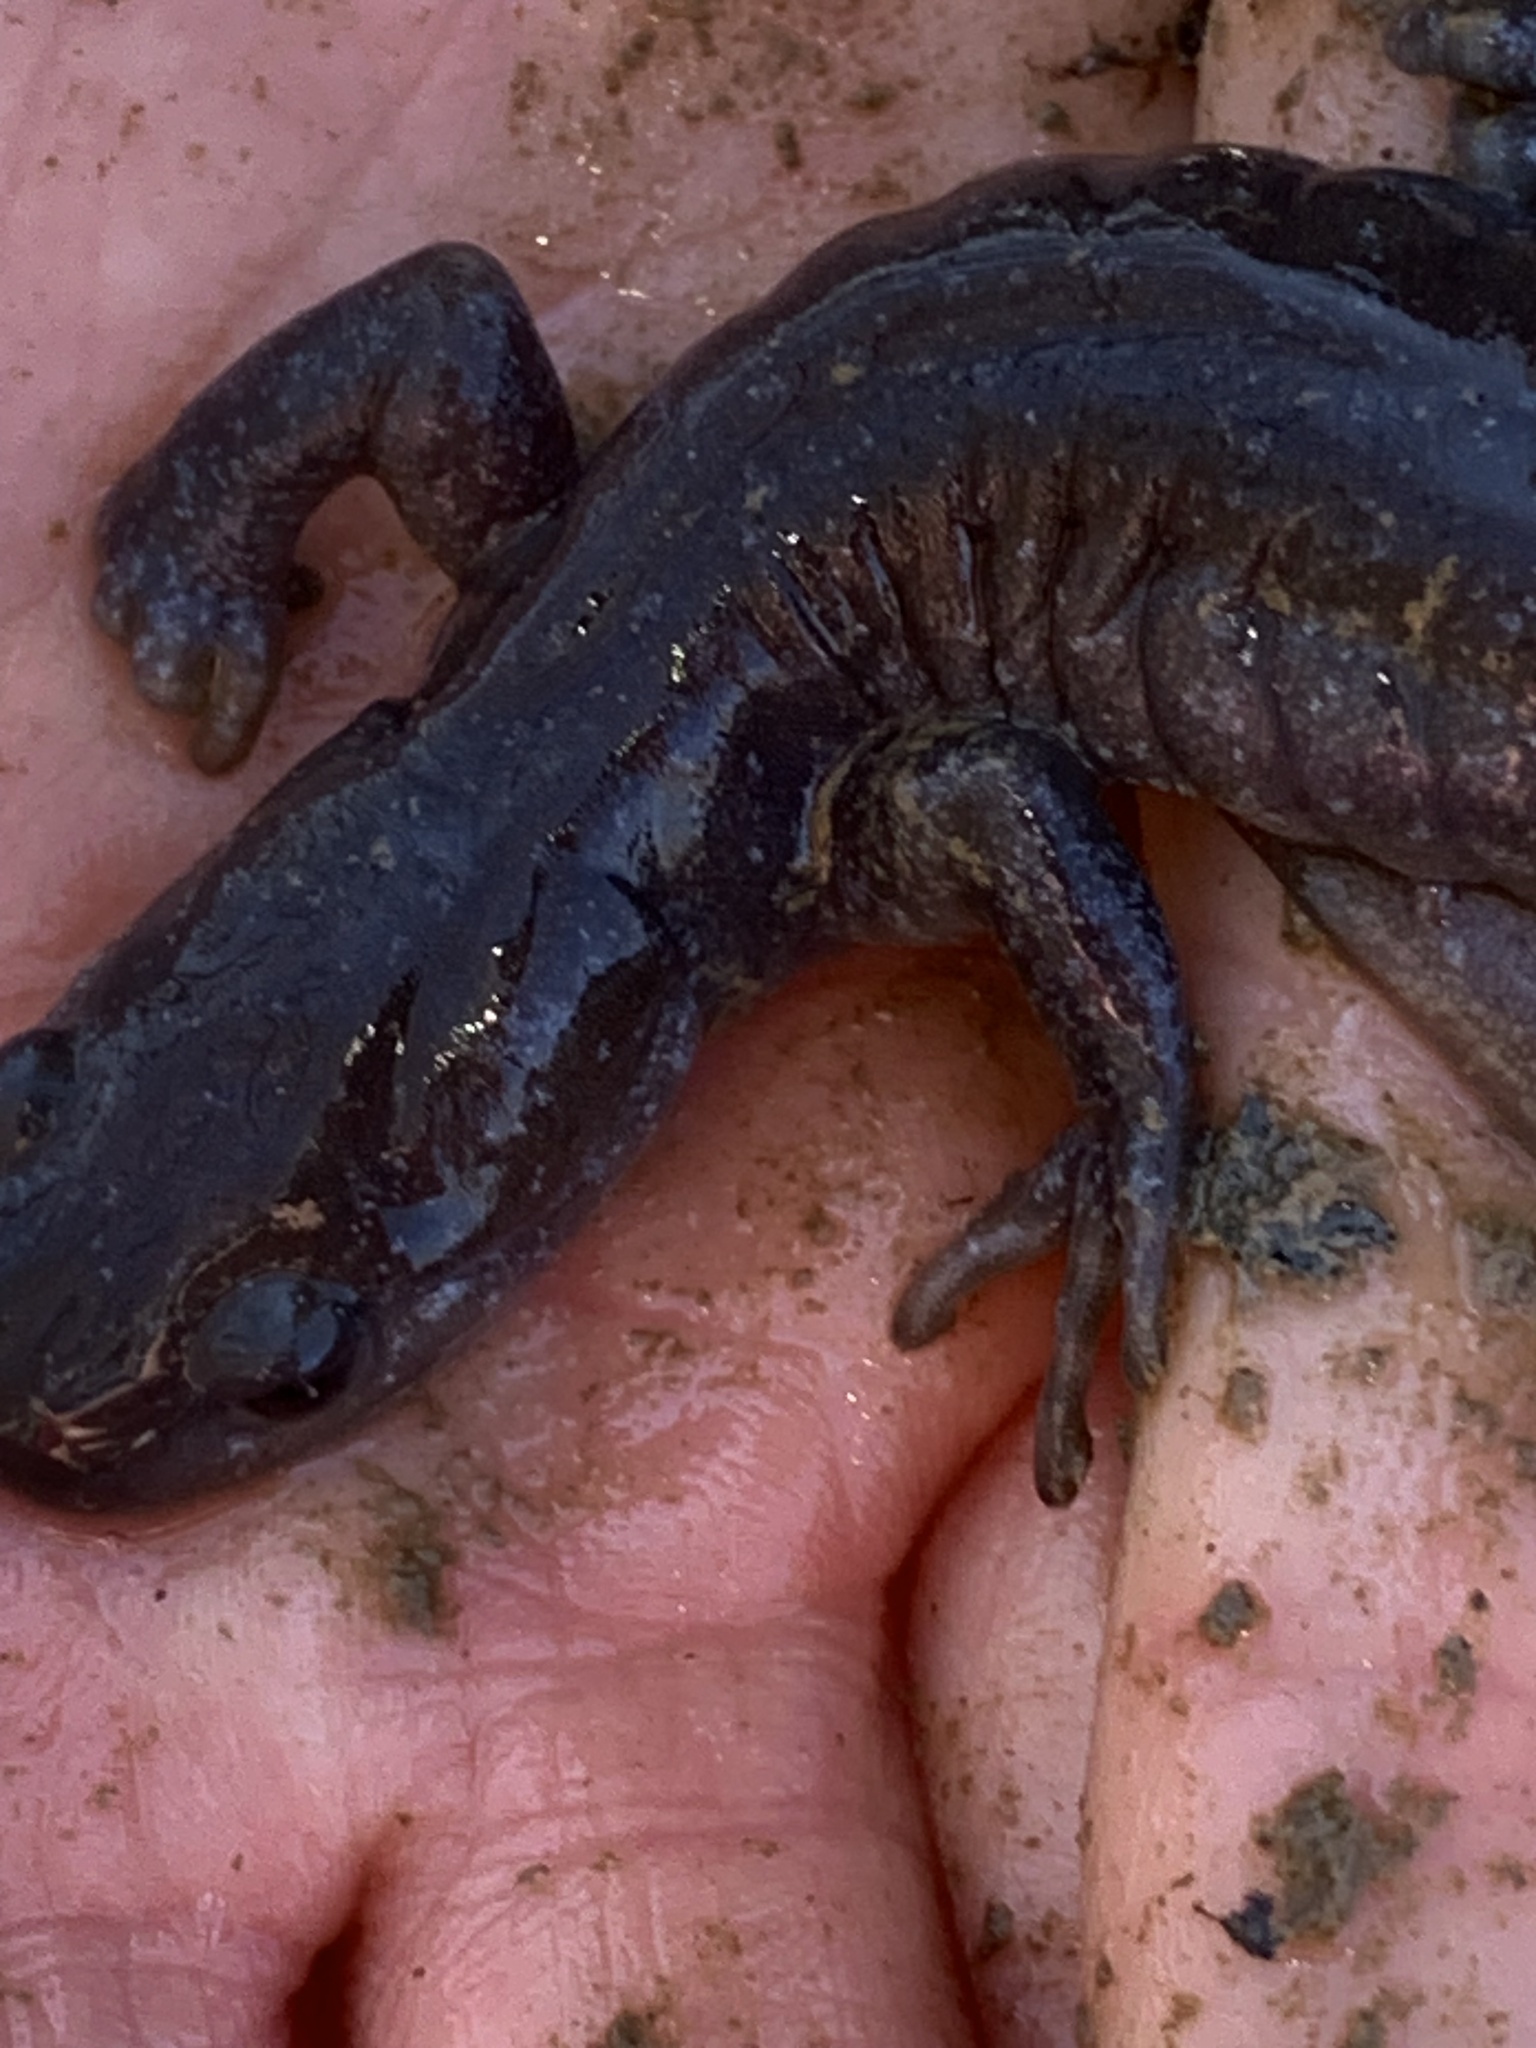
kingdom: Animalia
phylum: Chordata
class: Amphibia
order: Caudata
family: Ambystomatidae
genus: Ambystoma
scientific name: Ambystoma jeffersonianum
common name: Jefferson salamander
